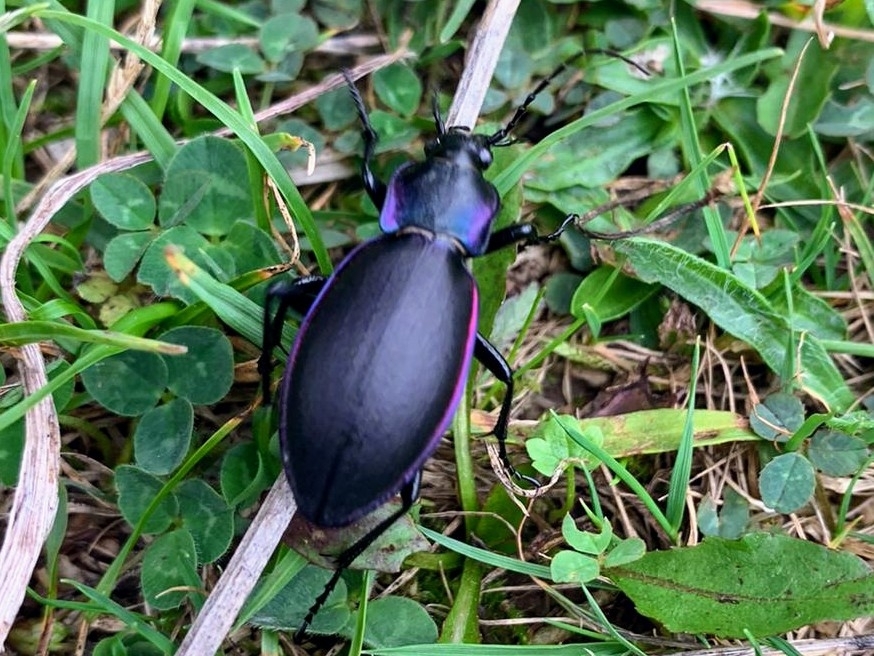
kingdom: Animalia
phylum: Arthropoda
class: Insecta
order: Coleoptera
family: Carabidae
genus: Carabus
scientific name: Carabus violaceus
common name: Violet ground beetle
